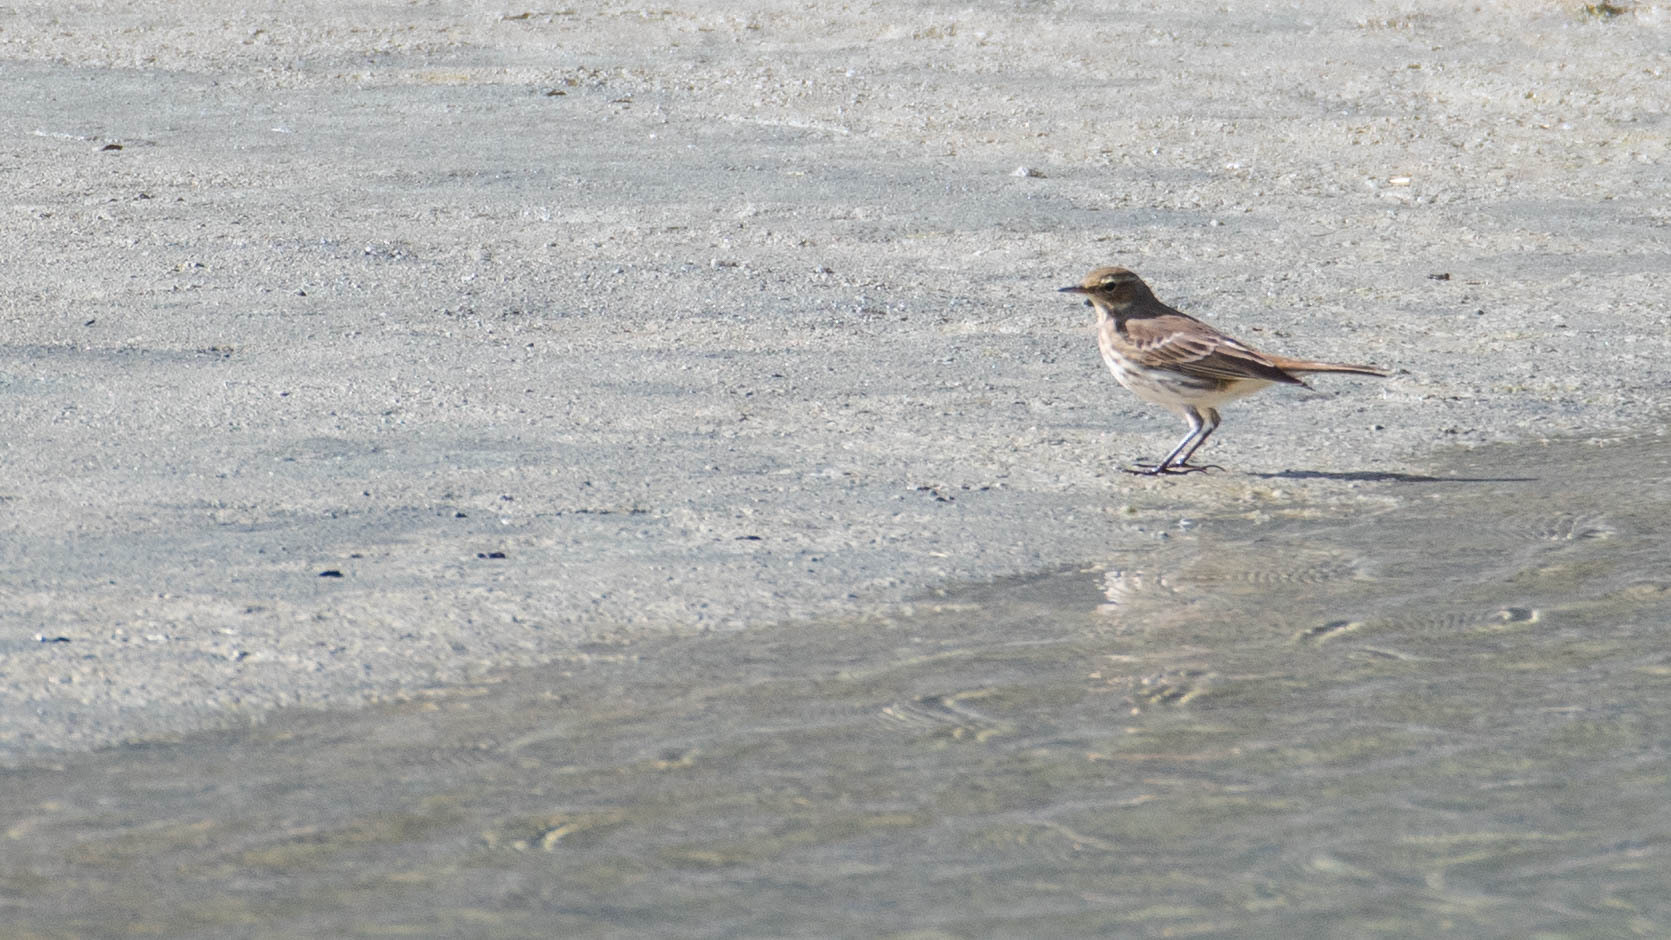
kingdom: Animalia
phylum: Chordata
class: Aves
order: Passeriformes
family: Motacillidae
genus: Anthus
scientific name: Anthus spinoletta
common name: Water pipit
